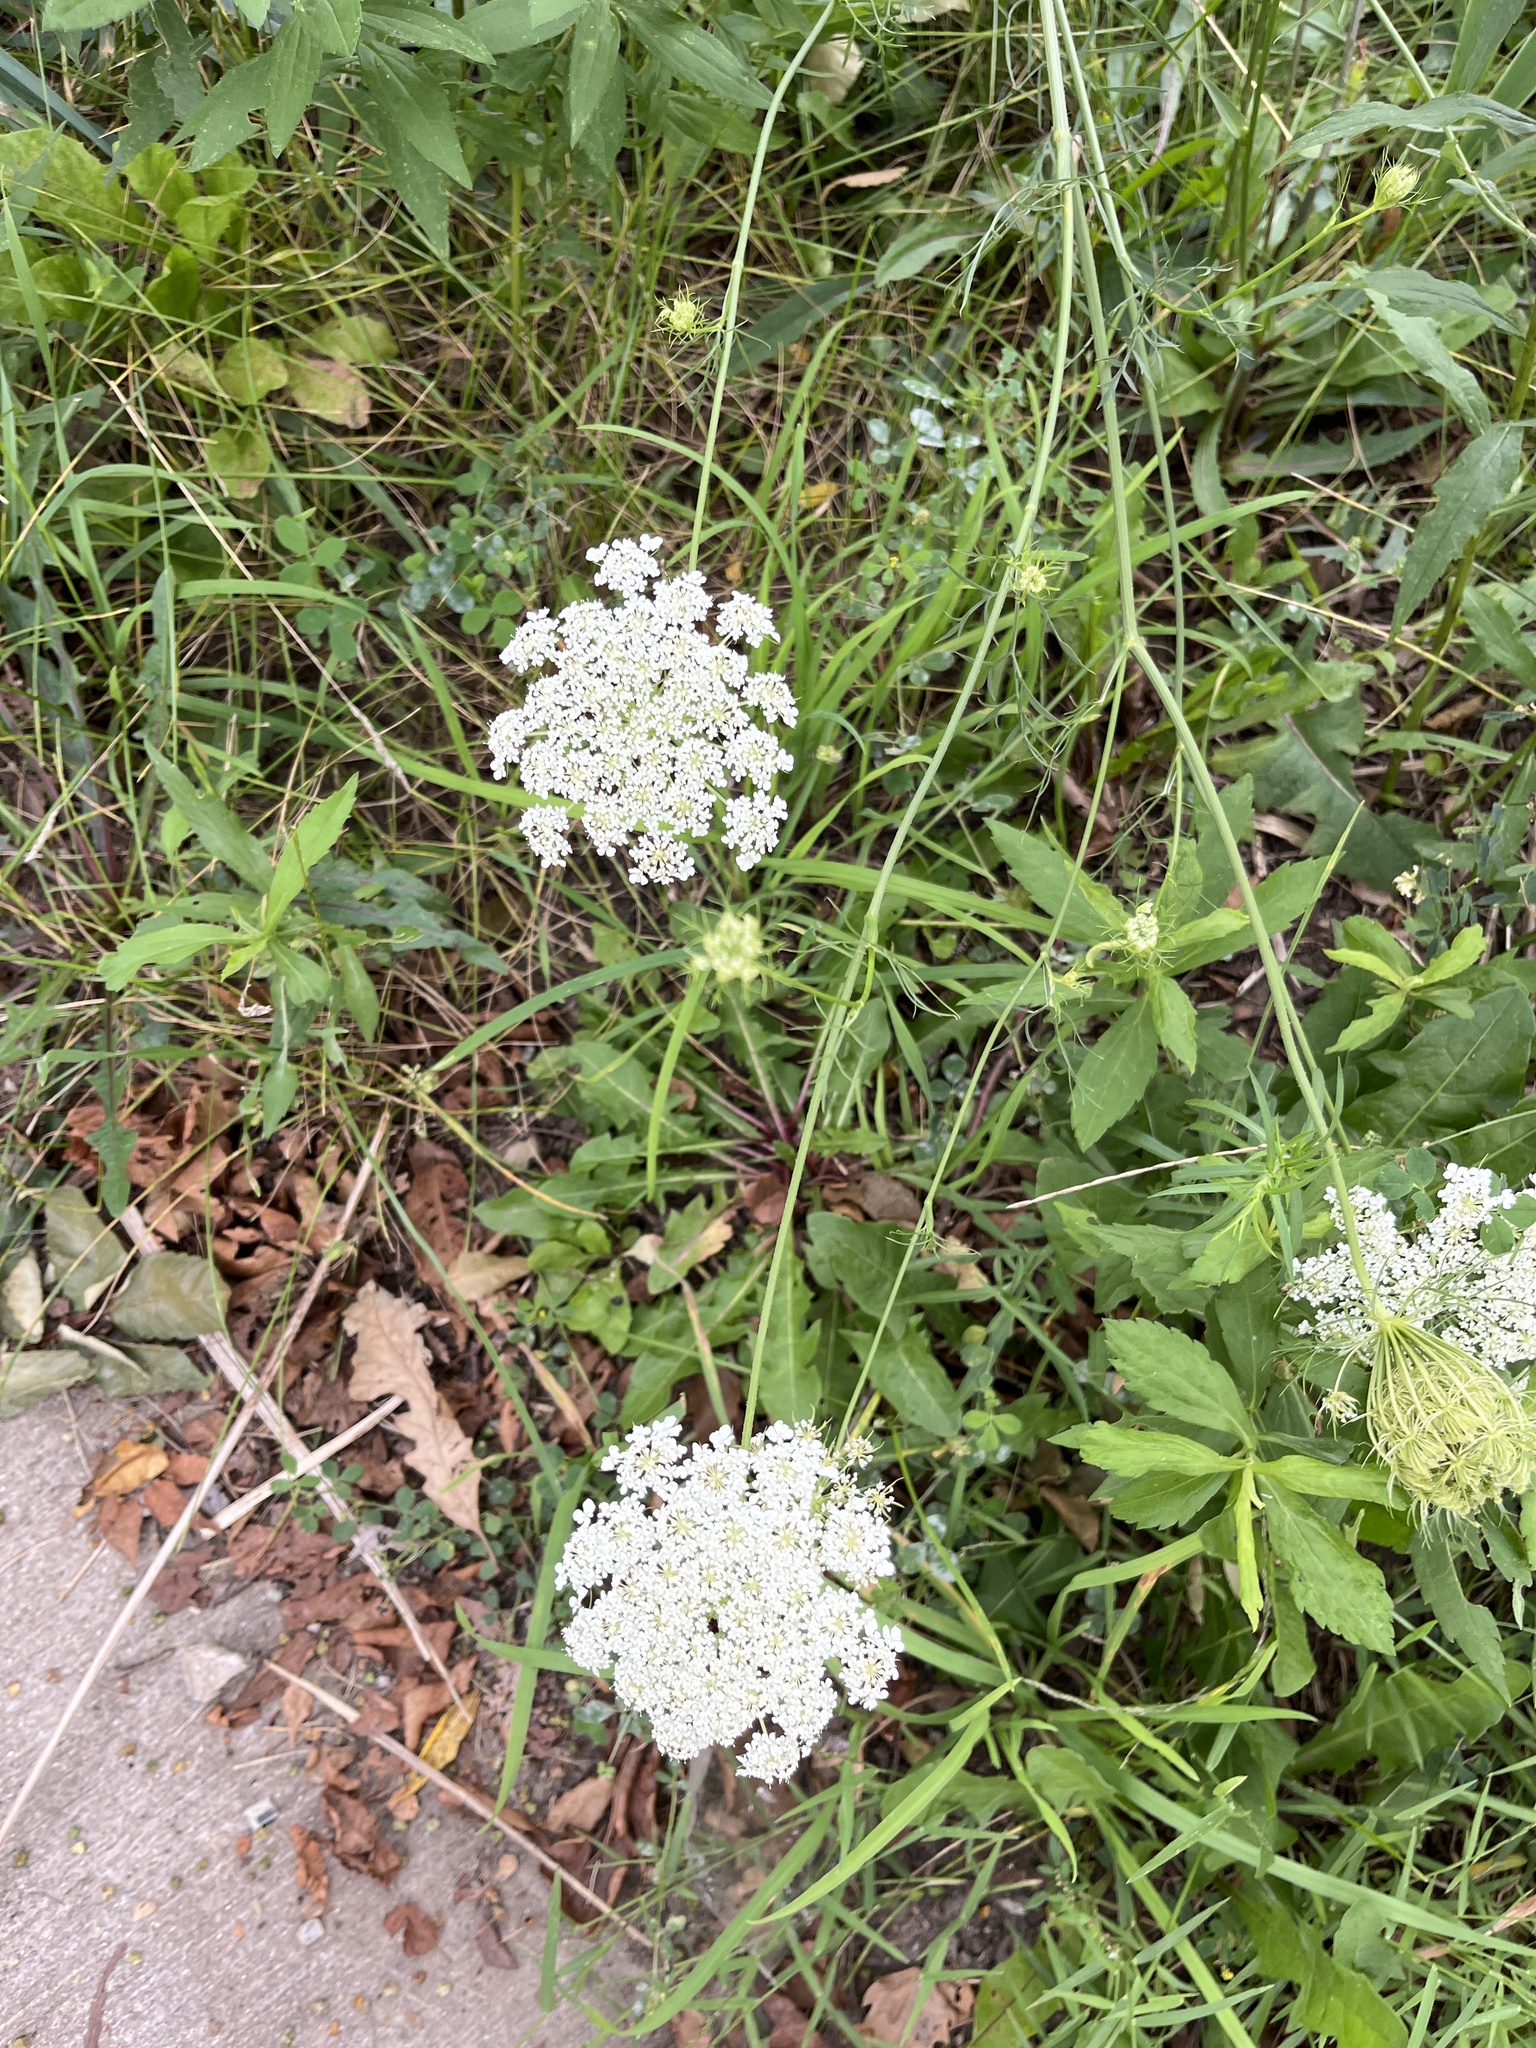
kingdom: Plantae
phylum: Tracheophyta
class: Magnoliopsida
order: Apiales
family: Apiaceae
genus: Daucus
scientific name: Daucus carota
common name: Wild carrot
